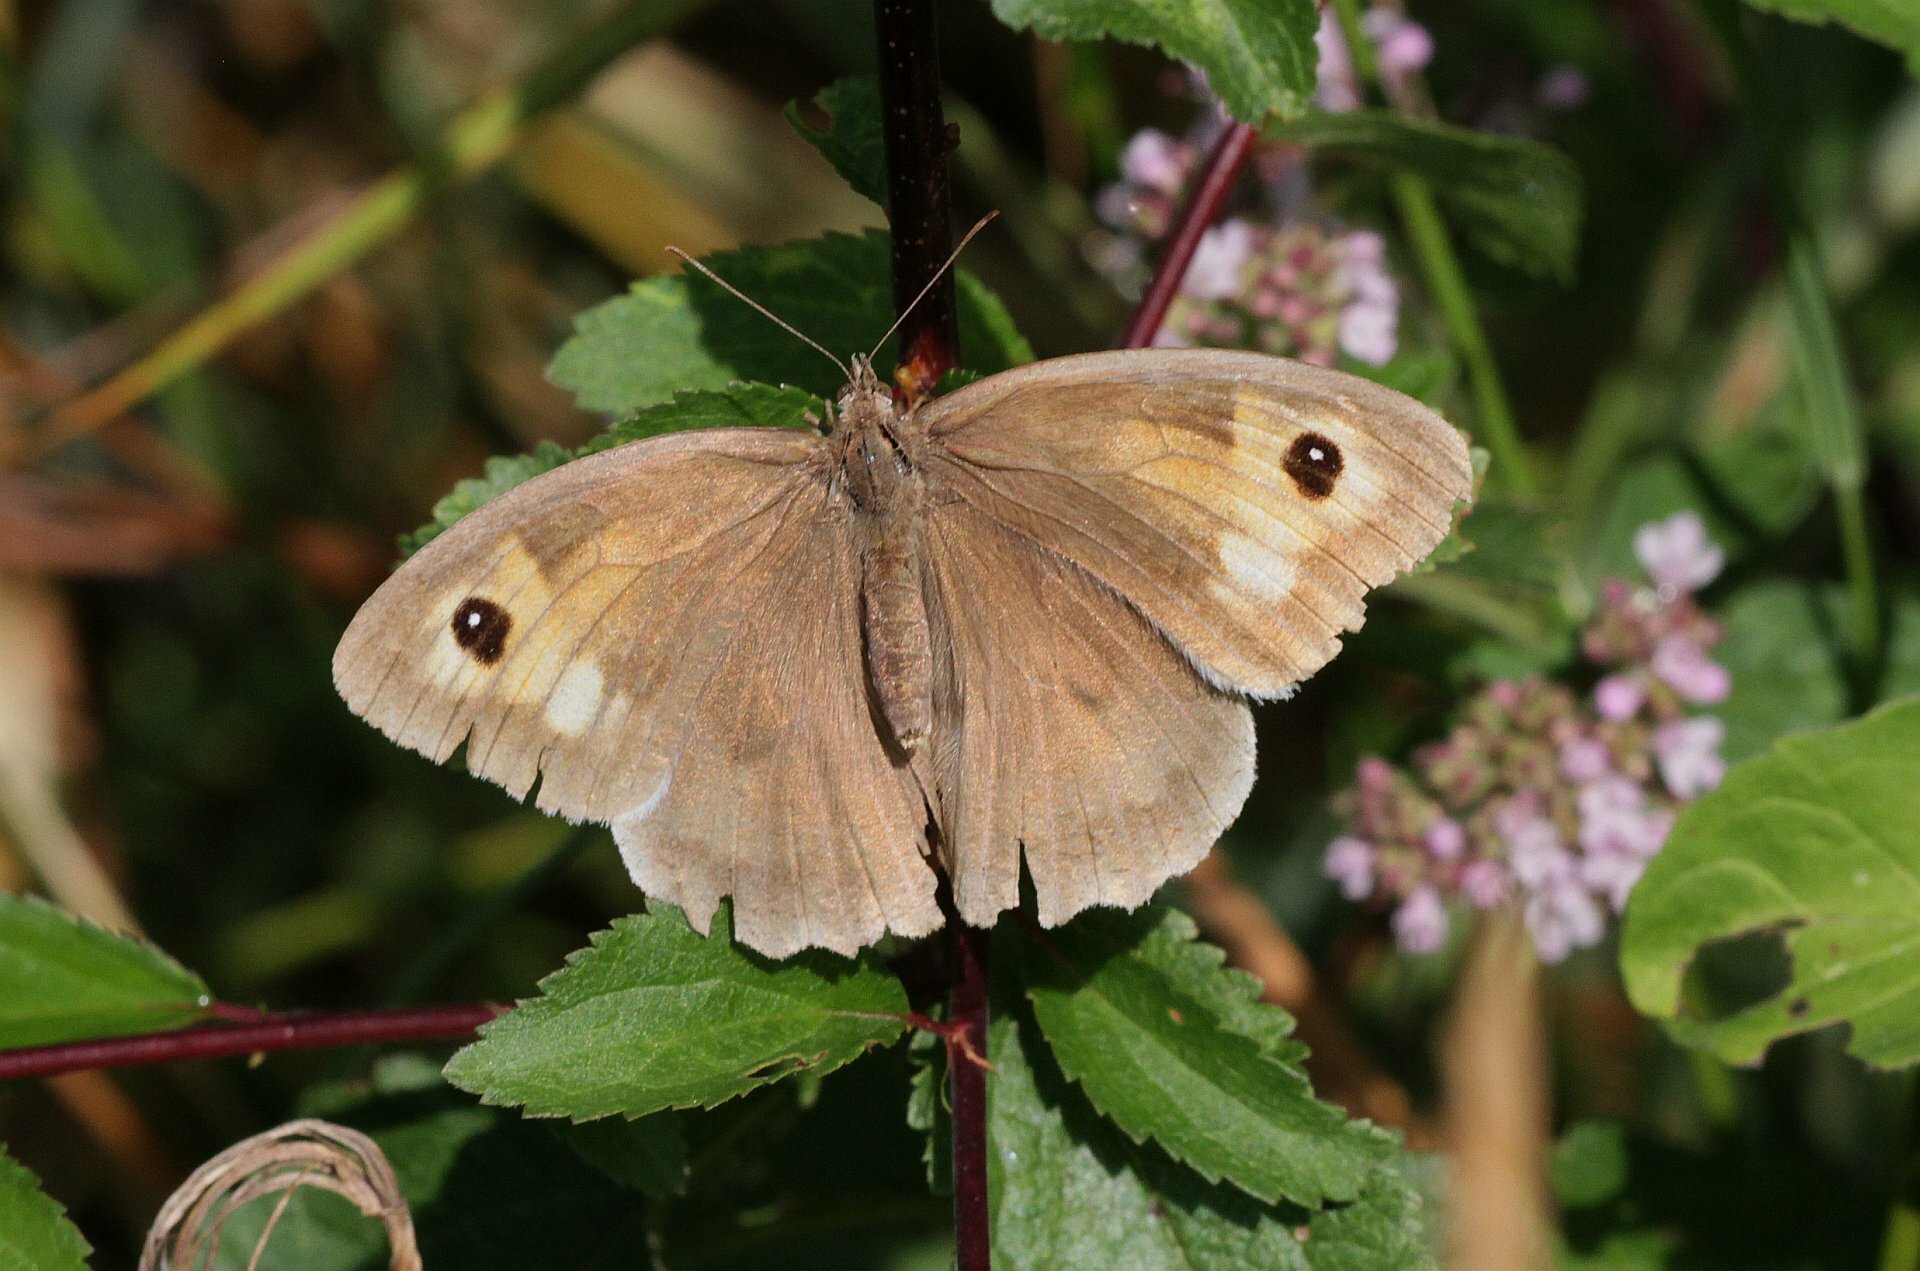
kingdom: Animalia
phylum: Arthropoda
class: Insecta
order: Lepidoptera
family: Nymphalidae
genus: Maniola
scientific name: Maniola jurtina
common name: Meadow brown
